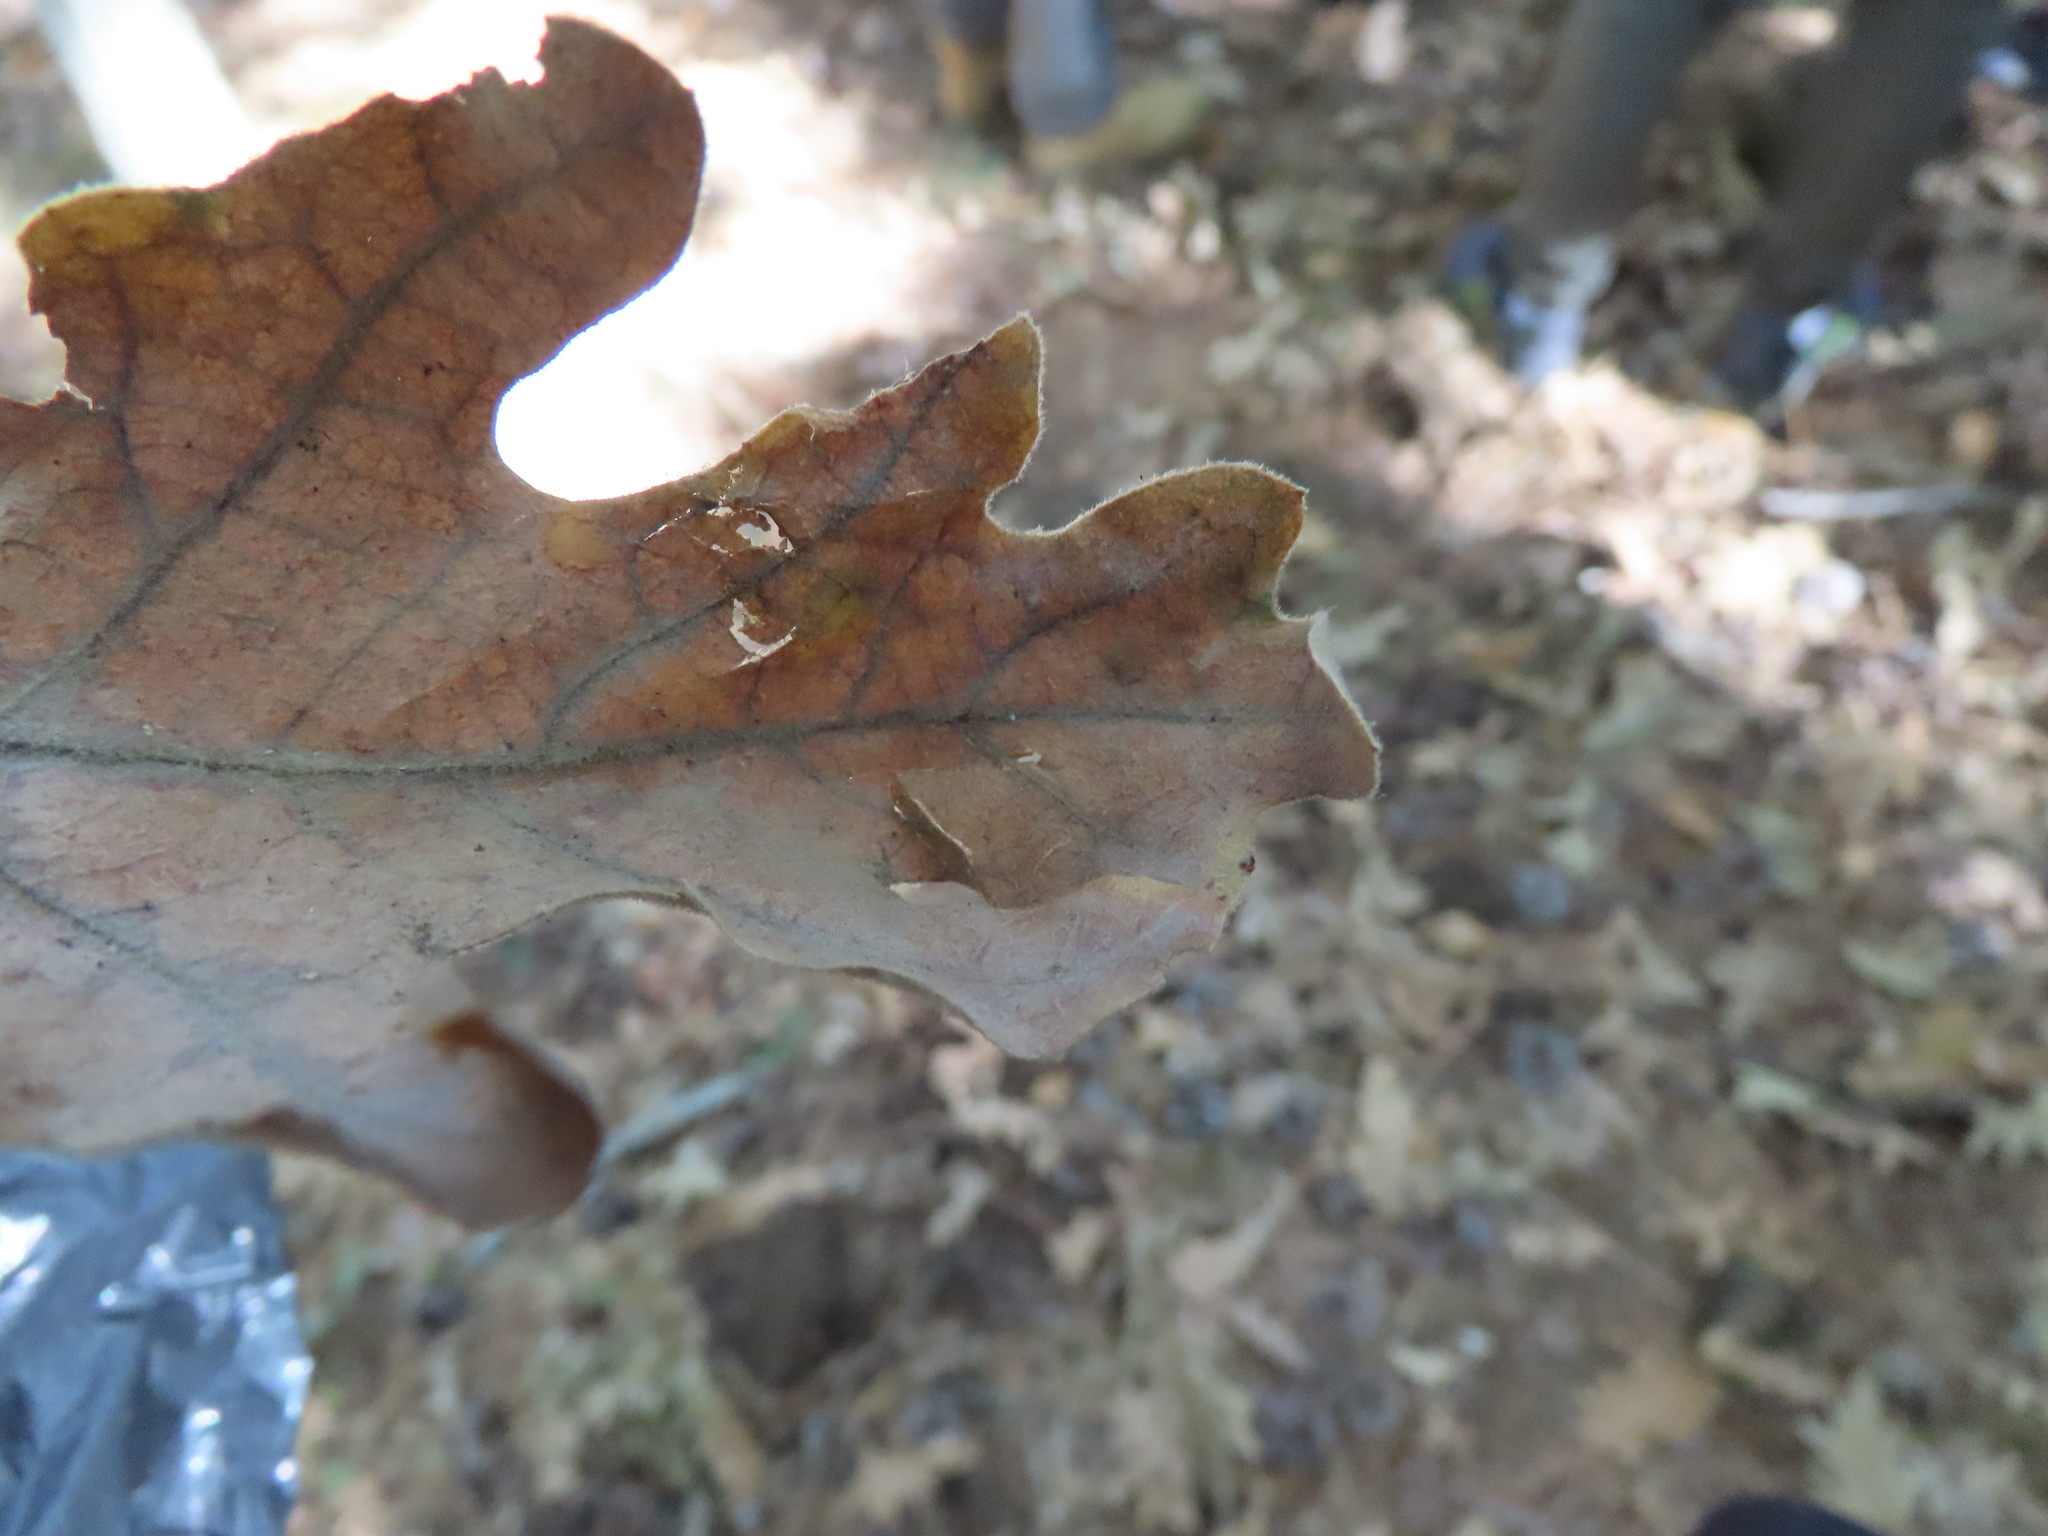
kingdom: Animalia
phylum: Arthropoda
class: Insecta
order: Hymenoptera
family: Cynipidae
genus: Neuroterus
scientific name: Neuroterus quercusbaccarum
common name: Common spangle gall
